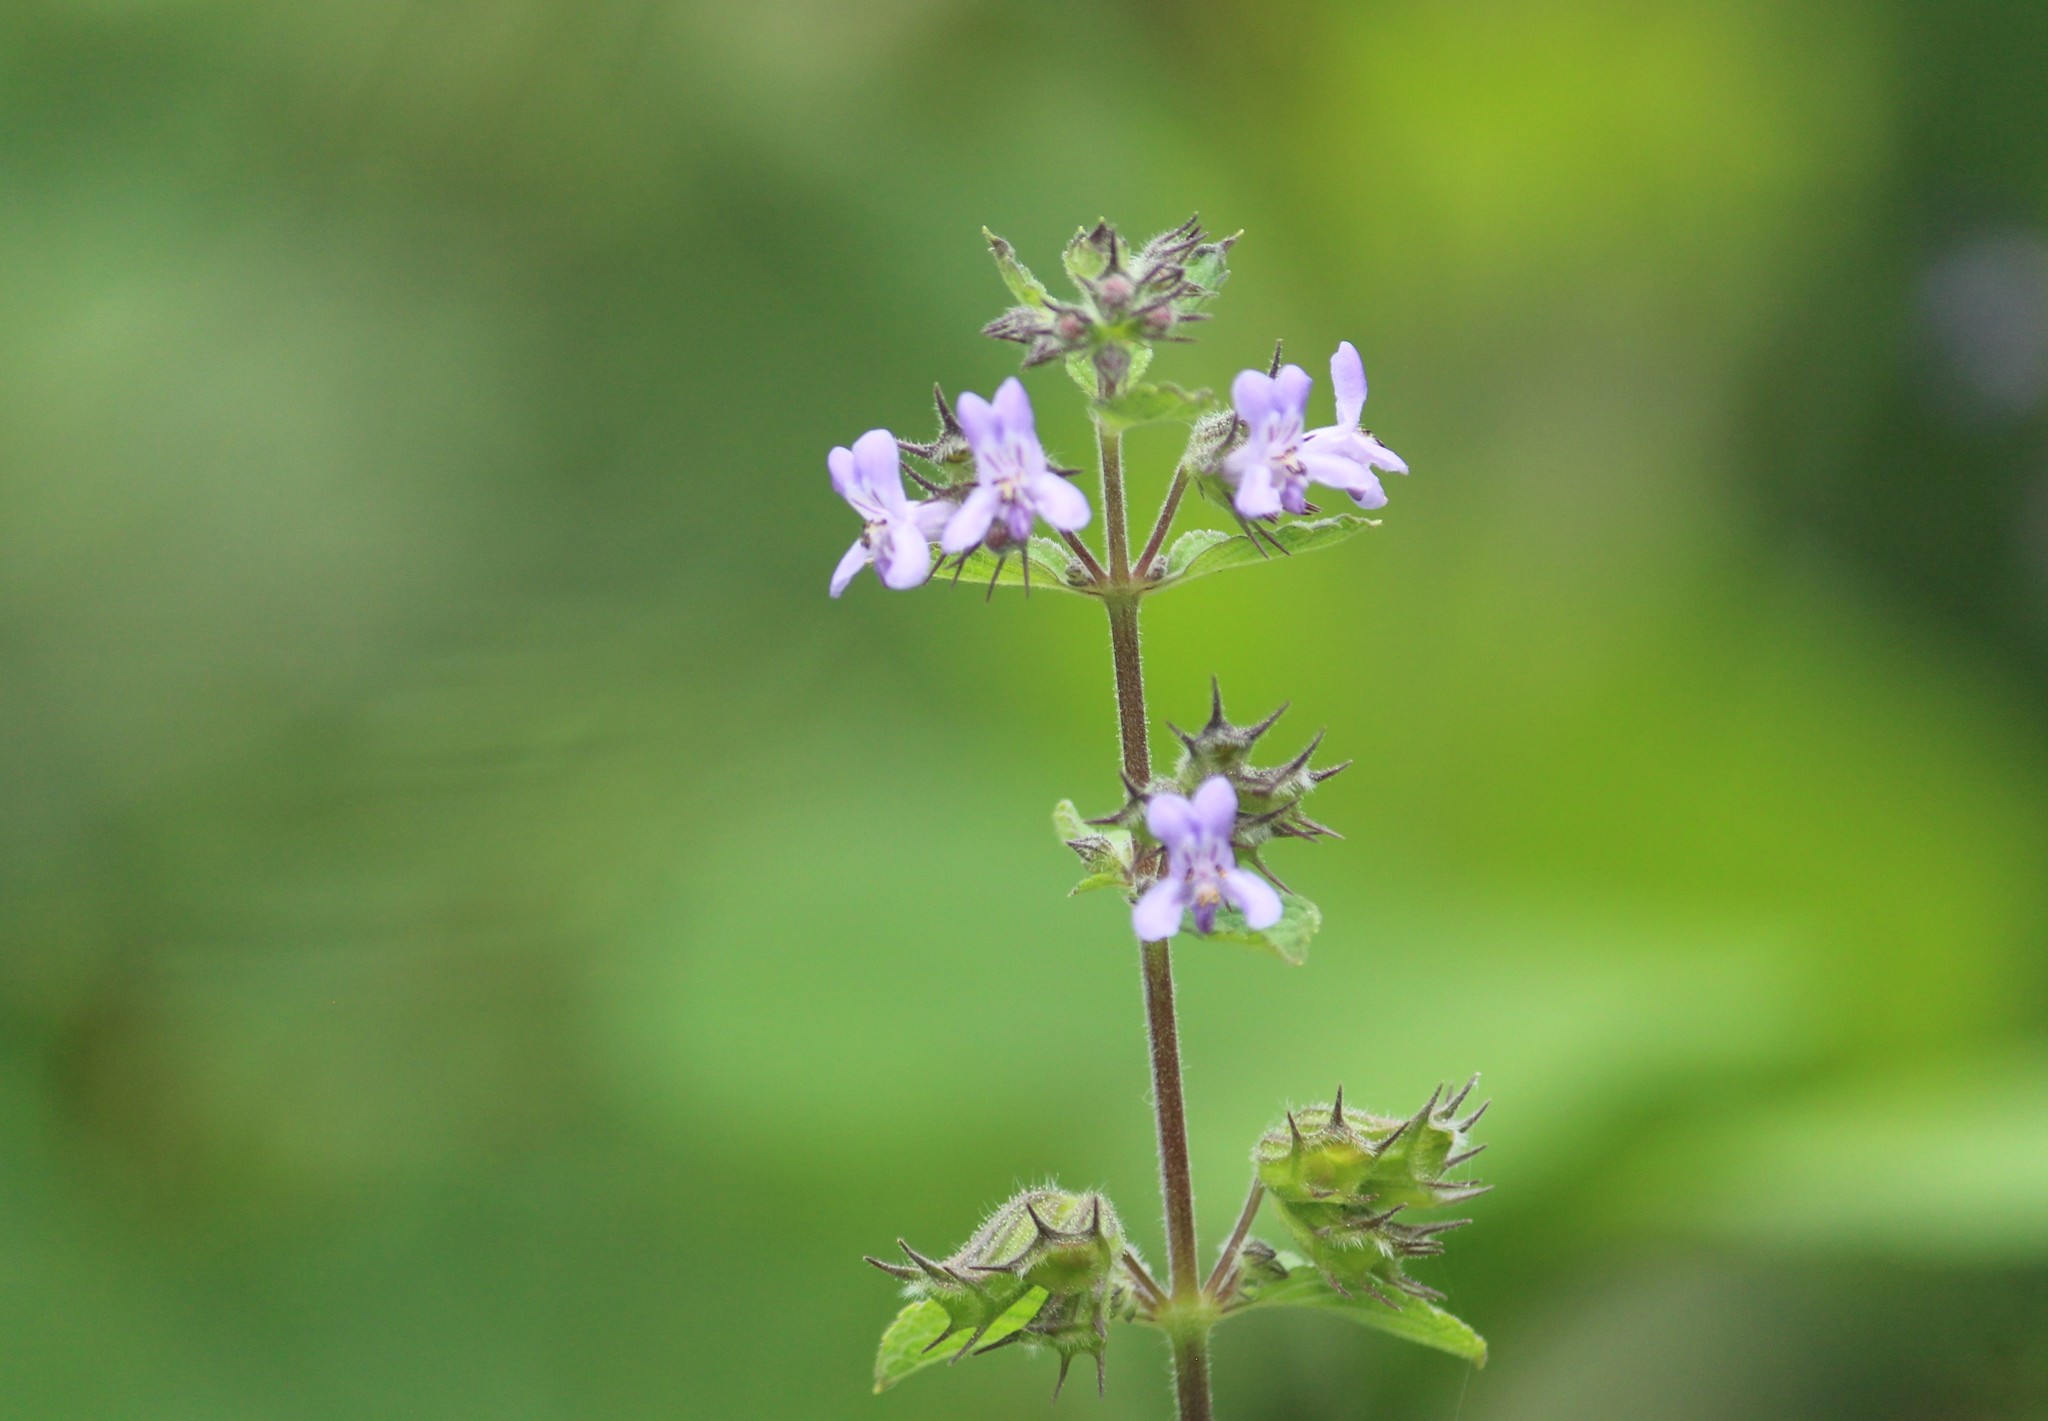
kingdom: Plantae
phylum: Tracheophyta
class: Magnoliopsida
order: Lamiales
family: Lamiaceae
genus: Mesosphaerum
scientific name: Mesosphaerum suaveolens
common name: Pignut
